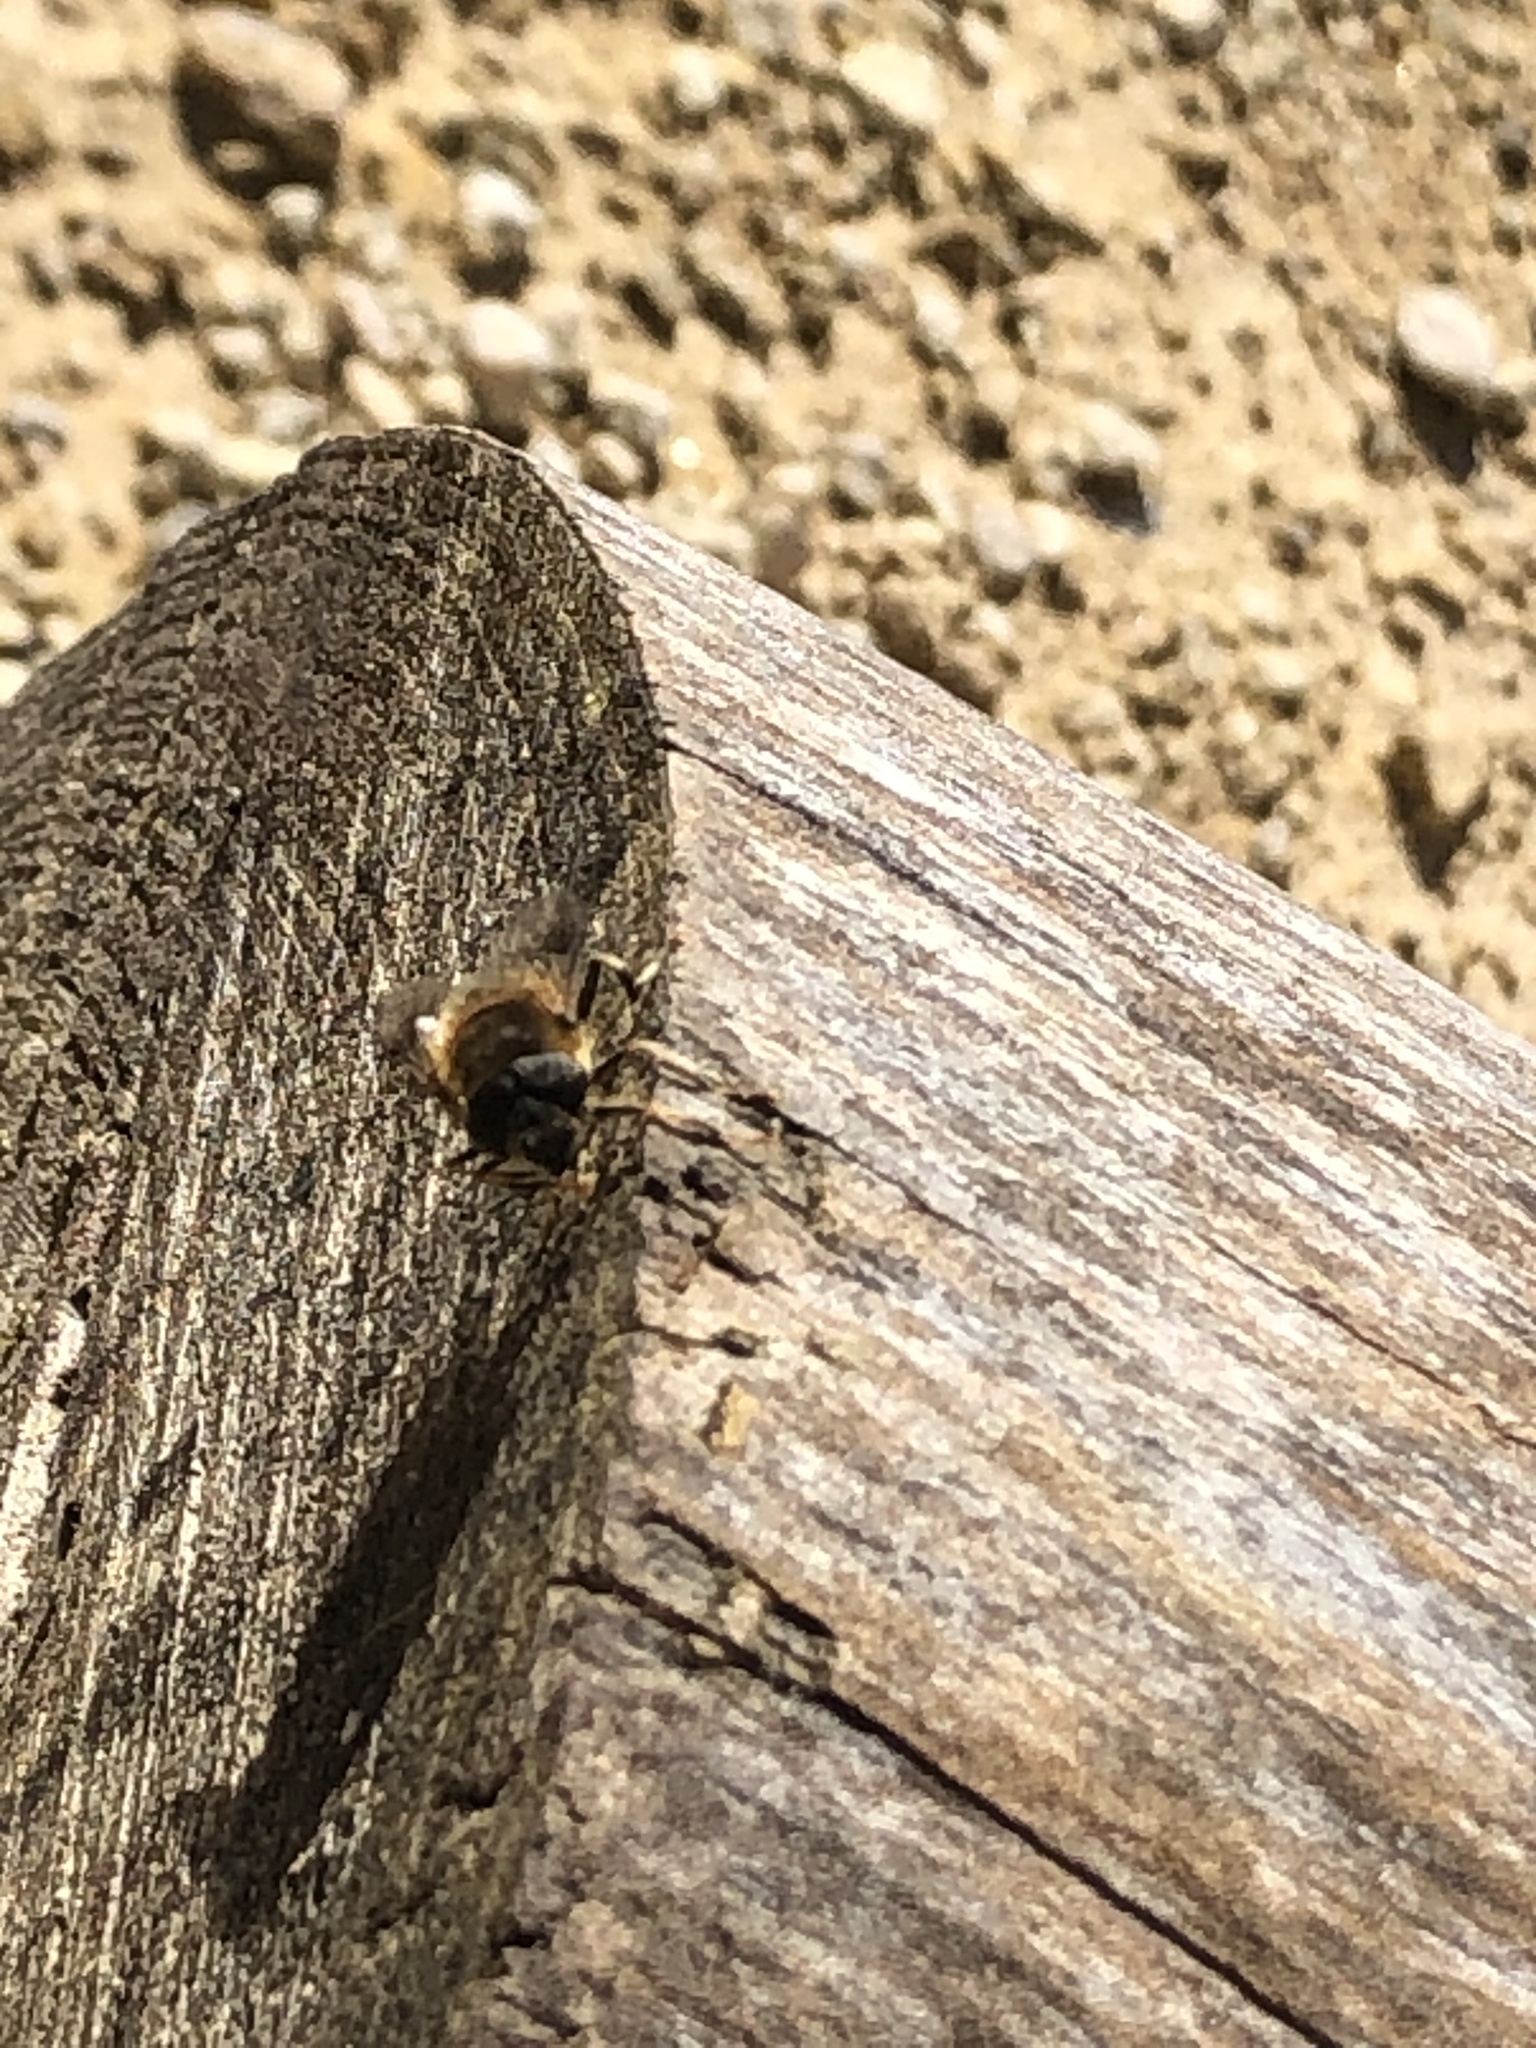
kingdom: Animalia
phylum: Arthropoda
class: Insecta
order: Diptera
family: Syrphidae
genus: Eristalis
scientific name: Eristalis pertinax
